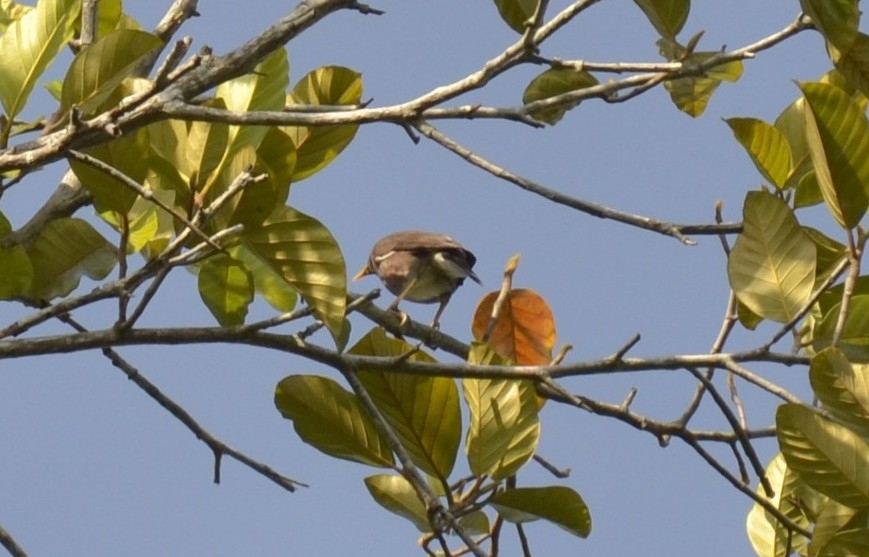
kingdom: Animalia
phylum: Chordata
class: Aves
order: Passeriformes
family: Sturnidae
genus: Acridotheres
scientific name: Acridotheres tristis
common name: Common myna
